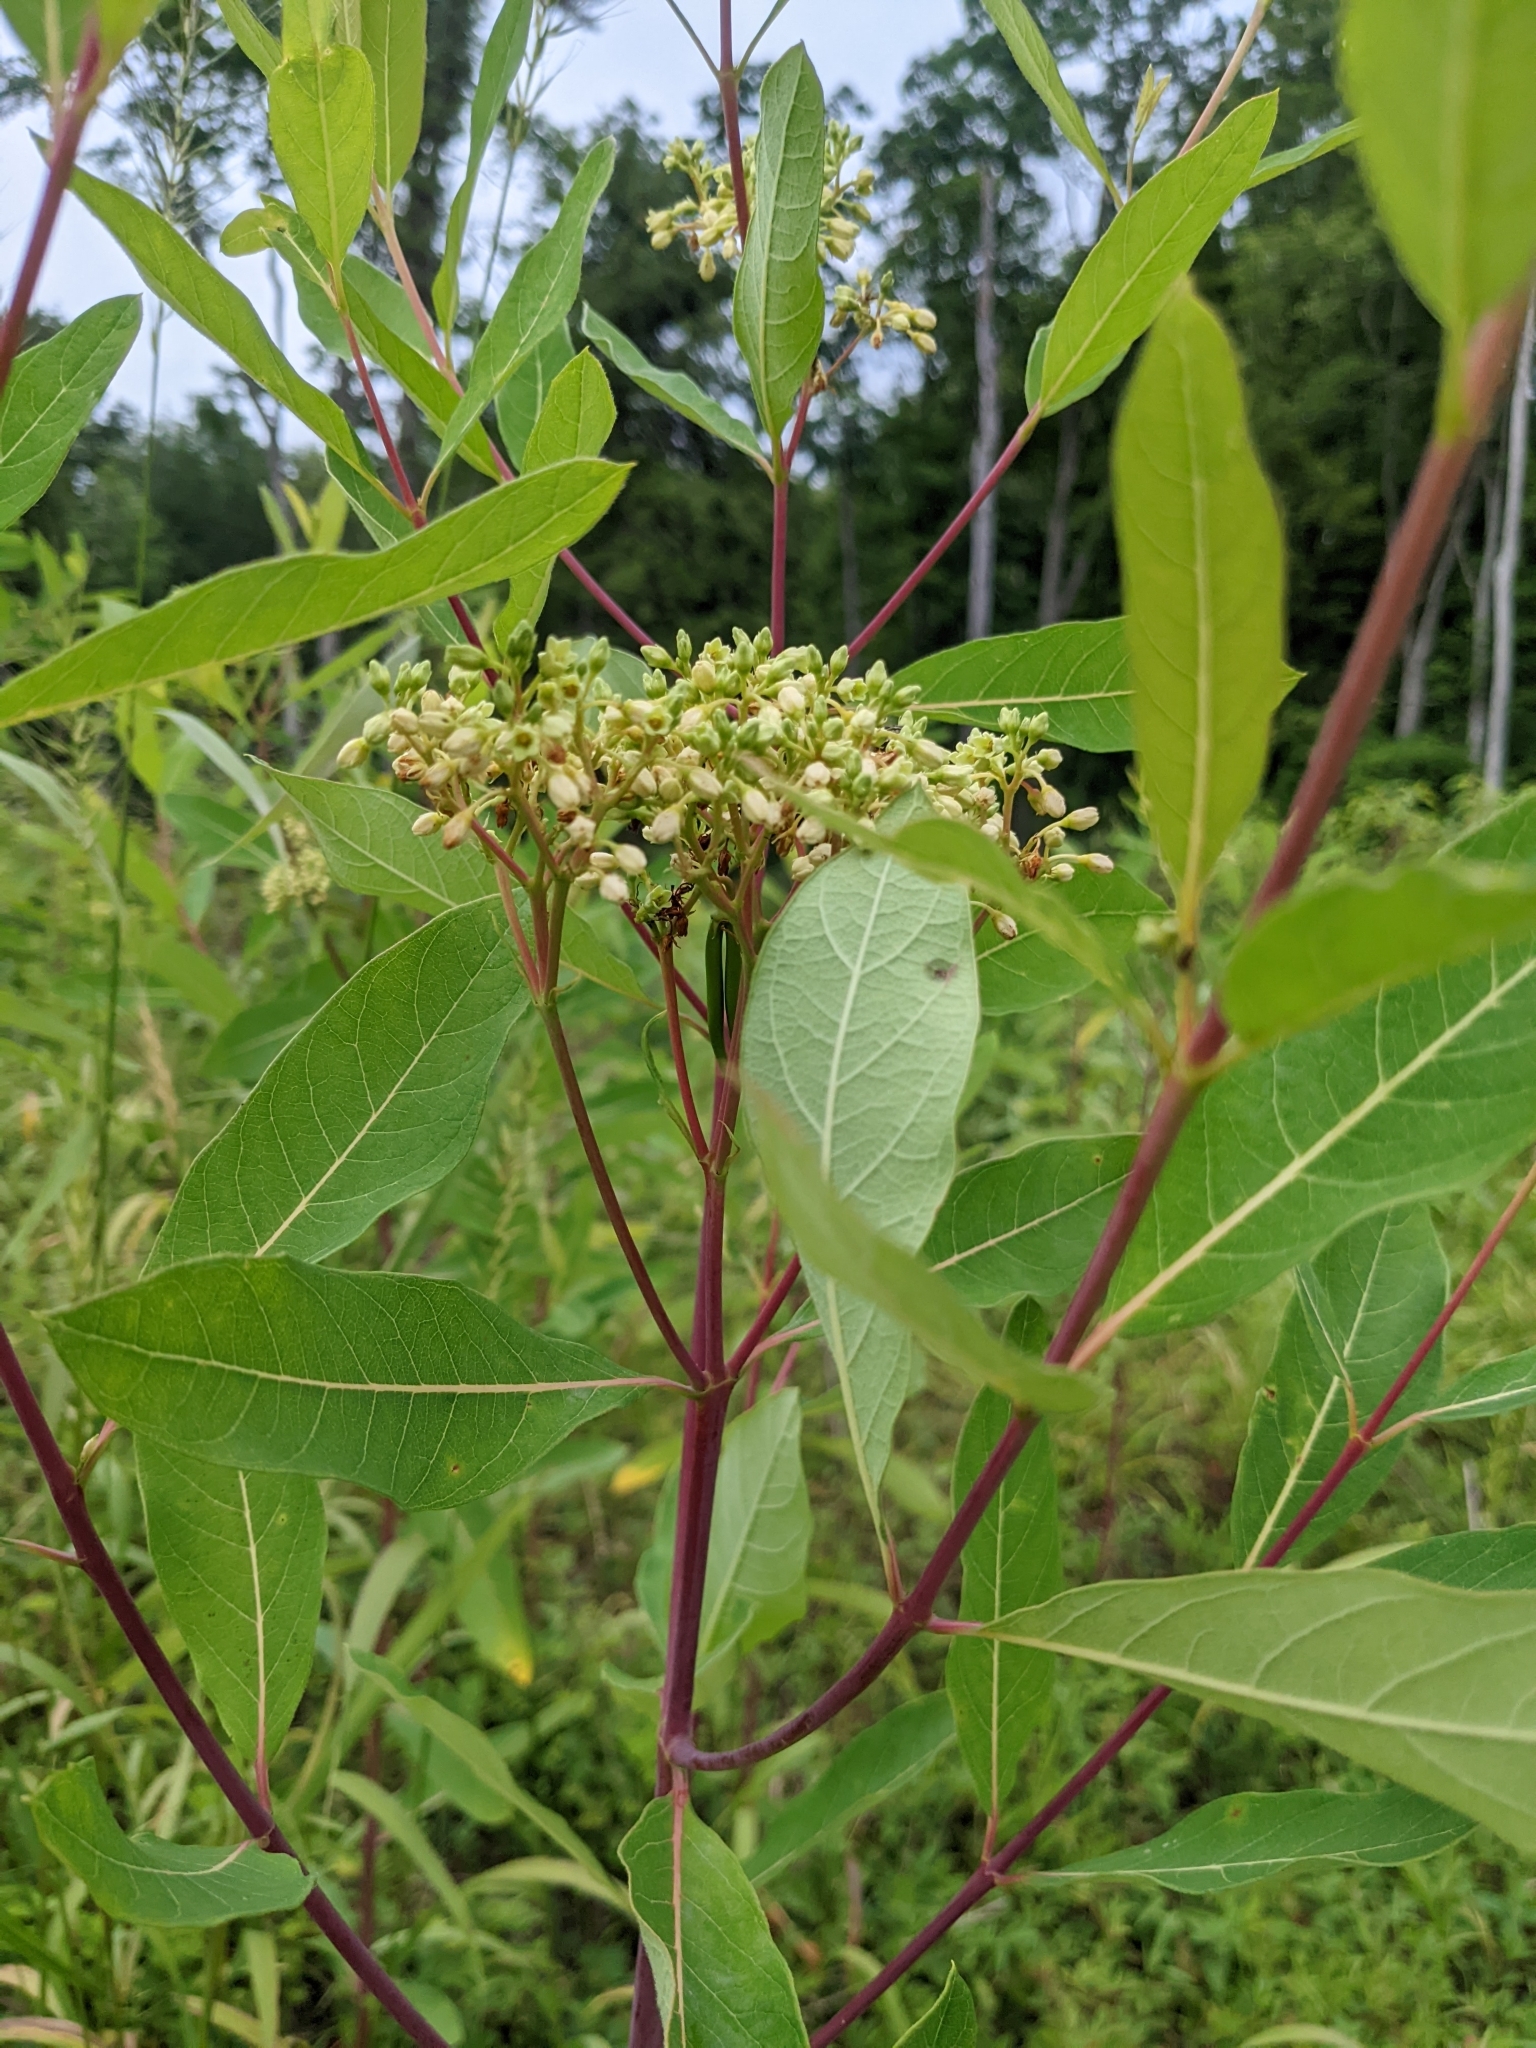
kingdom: Plantae
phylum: Tracheophyta
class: Magnoliopsida
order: Gentianales
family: Apocynaceae
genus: Apocynum
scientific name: Apocynum cannabinum
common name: Hemp dogbane
